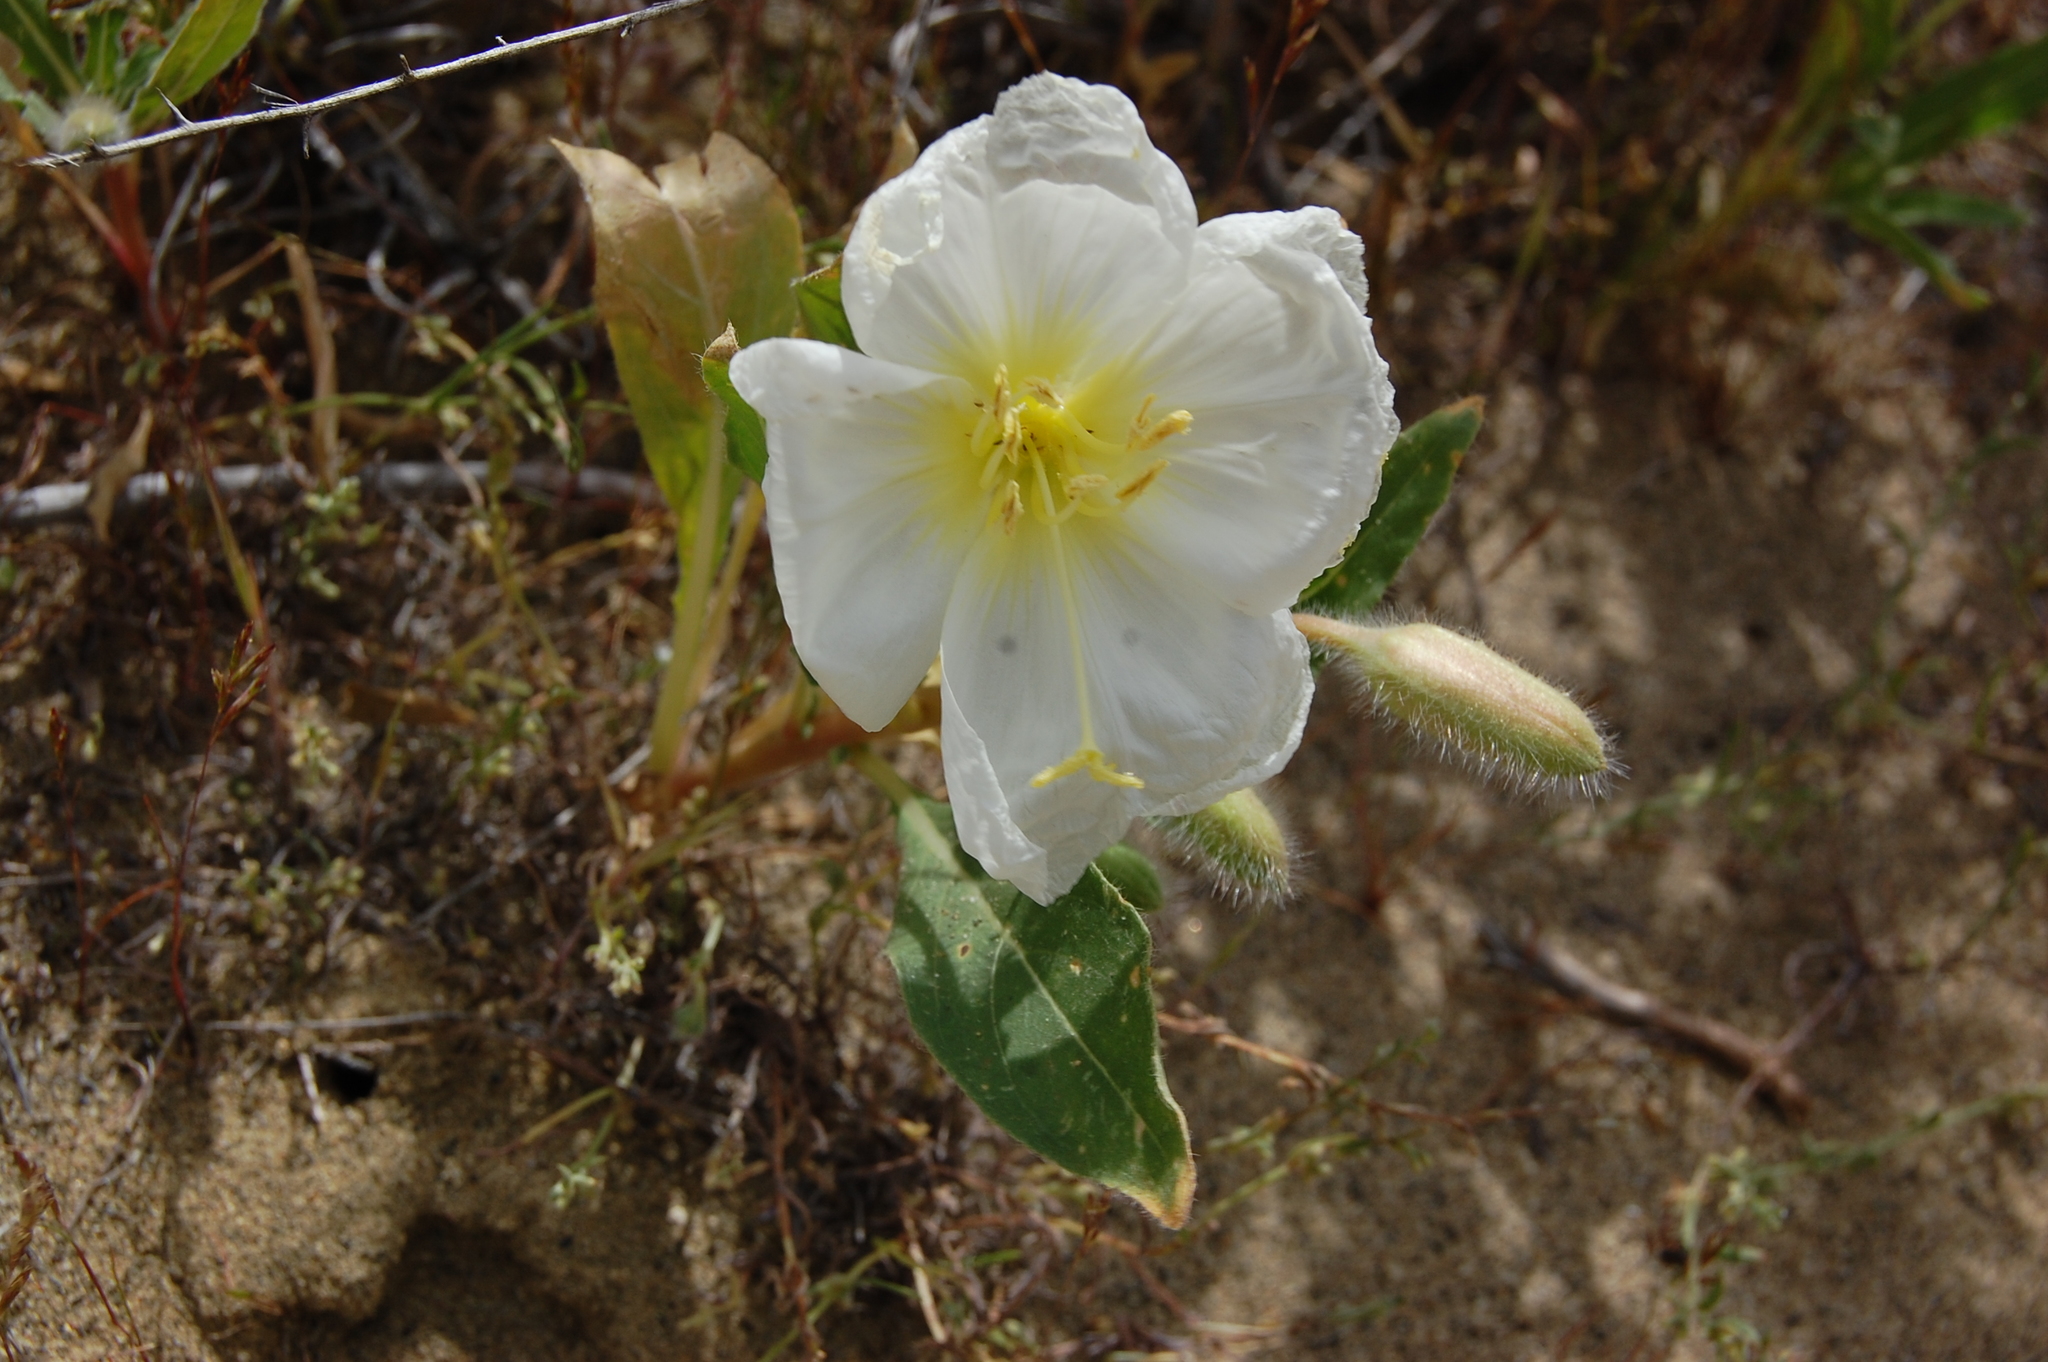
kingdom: Plantae
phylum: Tracheophyta
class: Magnoliopsida
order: Myrtales
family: Onagraceae
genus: Oenothera
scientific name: Oenothera deltoides
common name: Basket evening-primrose
